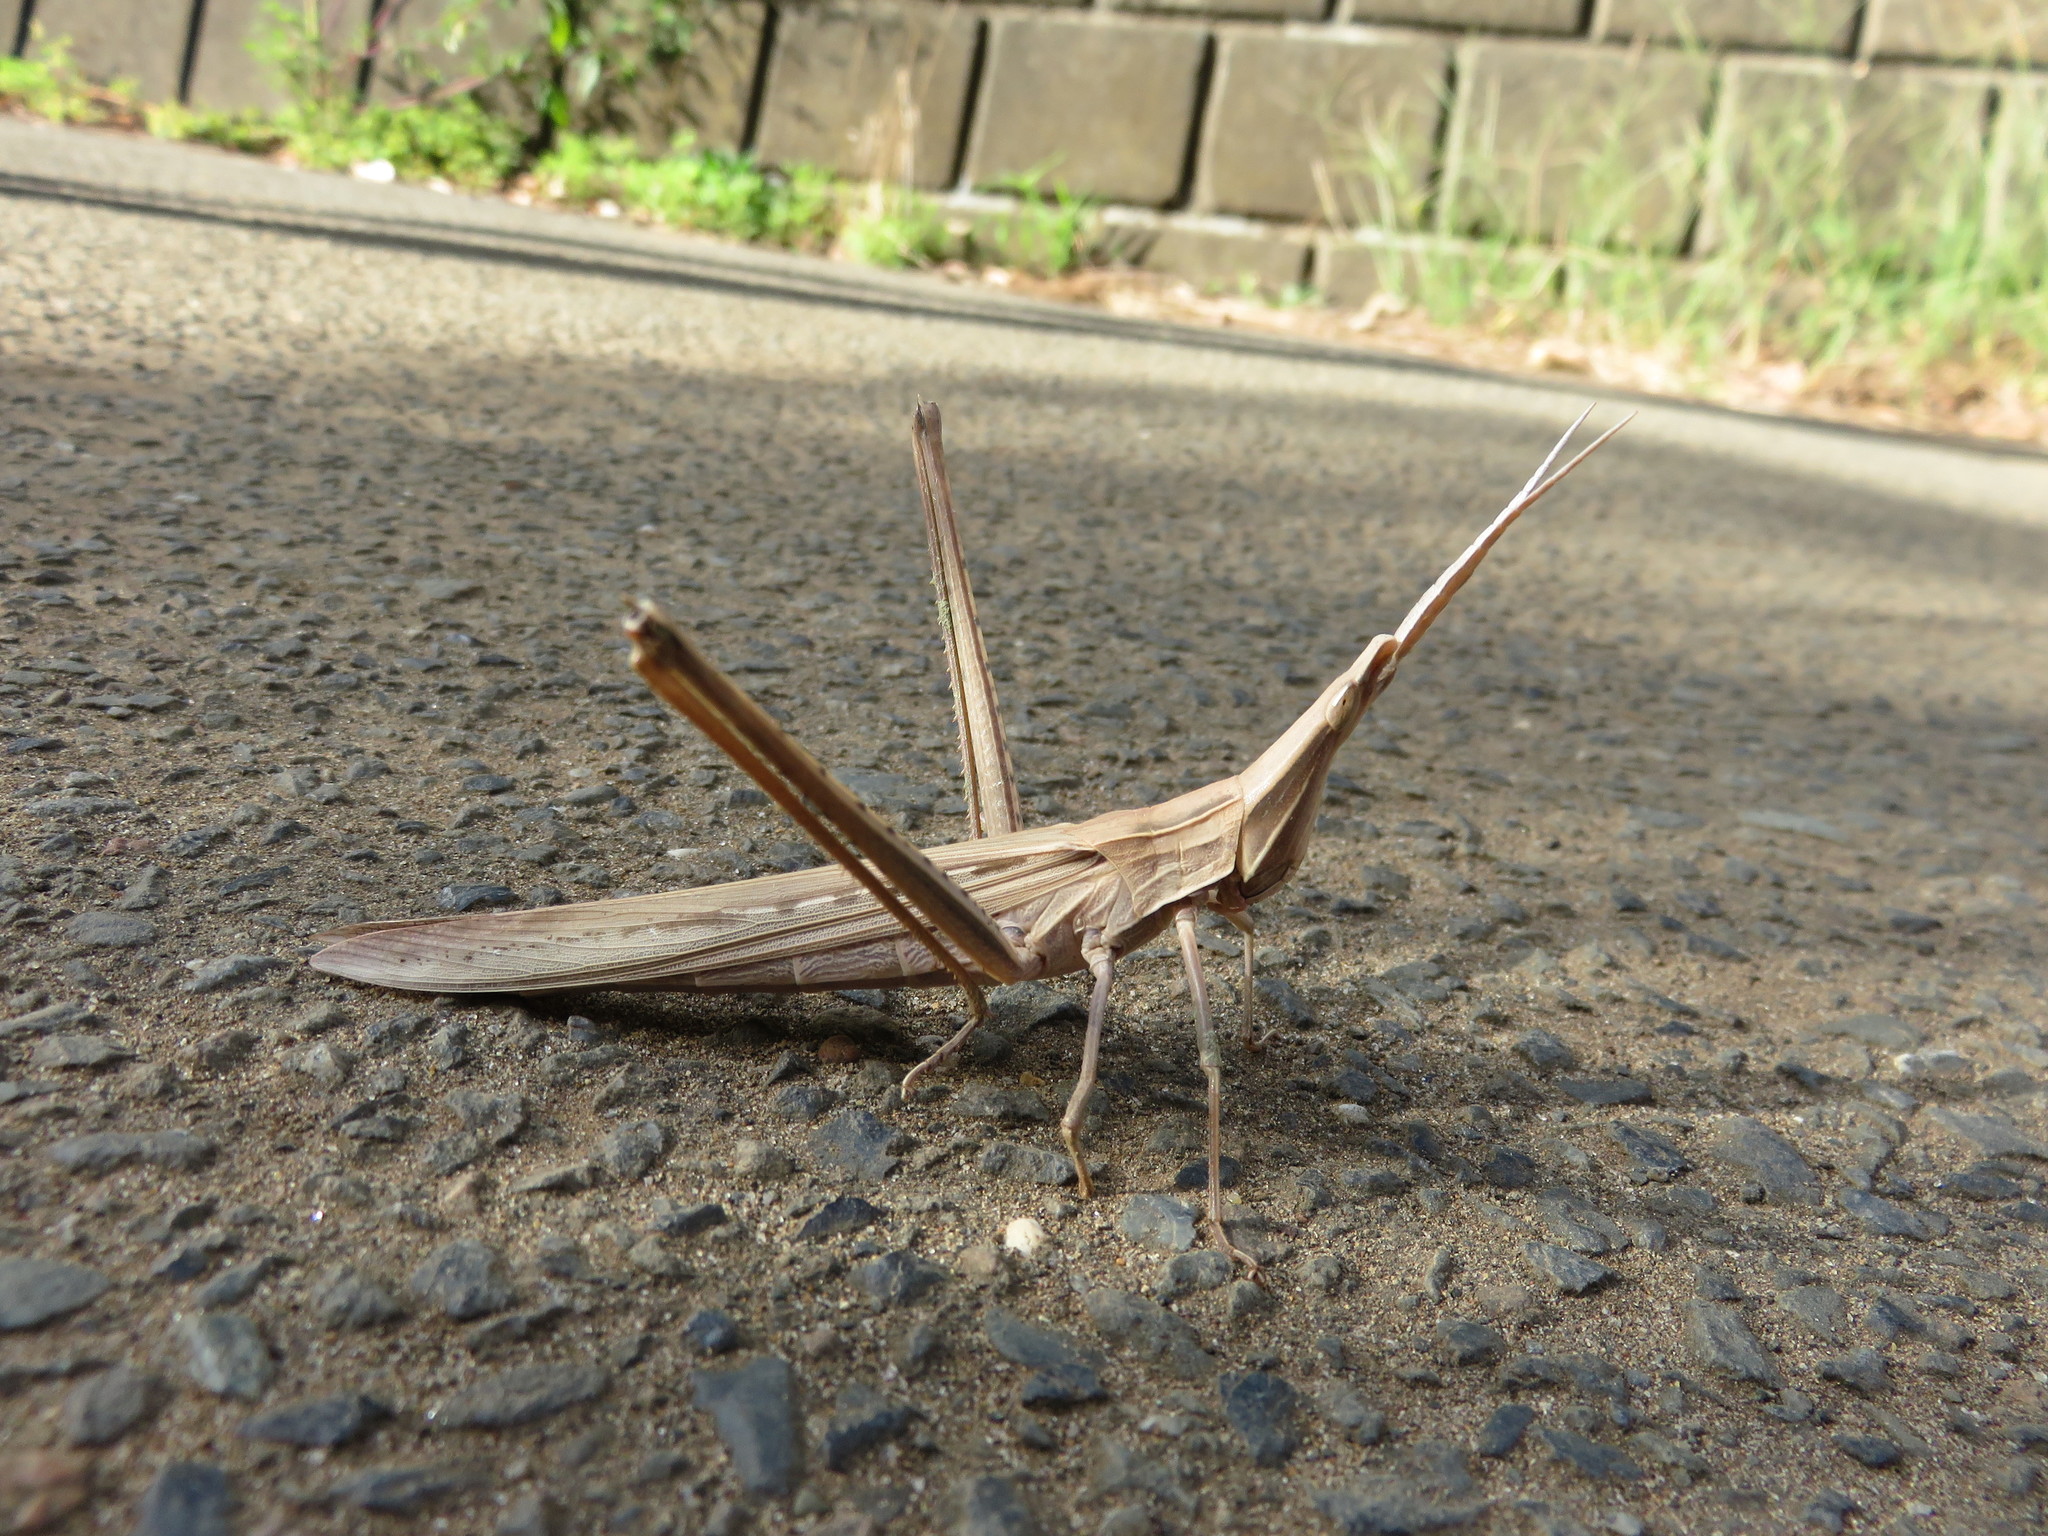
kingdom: Animalia
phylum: Arthropoda
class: Insecta
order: Orthoptera
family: Acrididae
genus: Acrida
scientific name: Acrida cinerea
